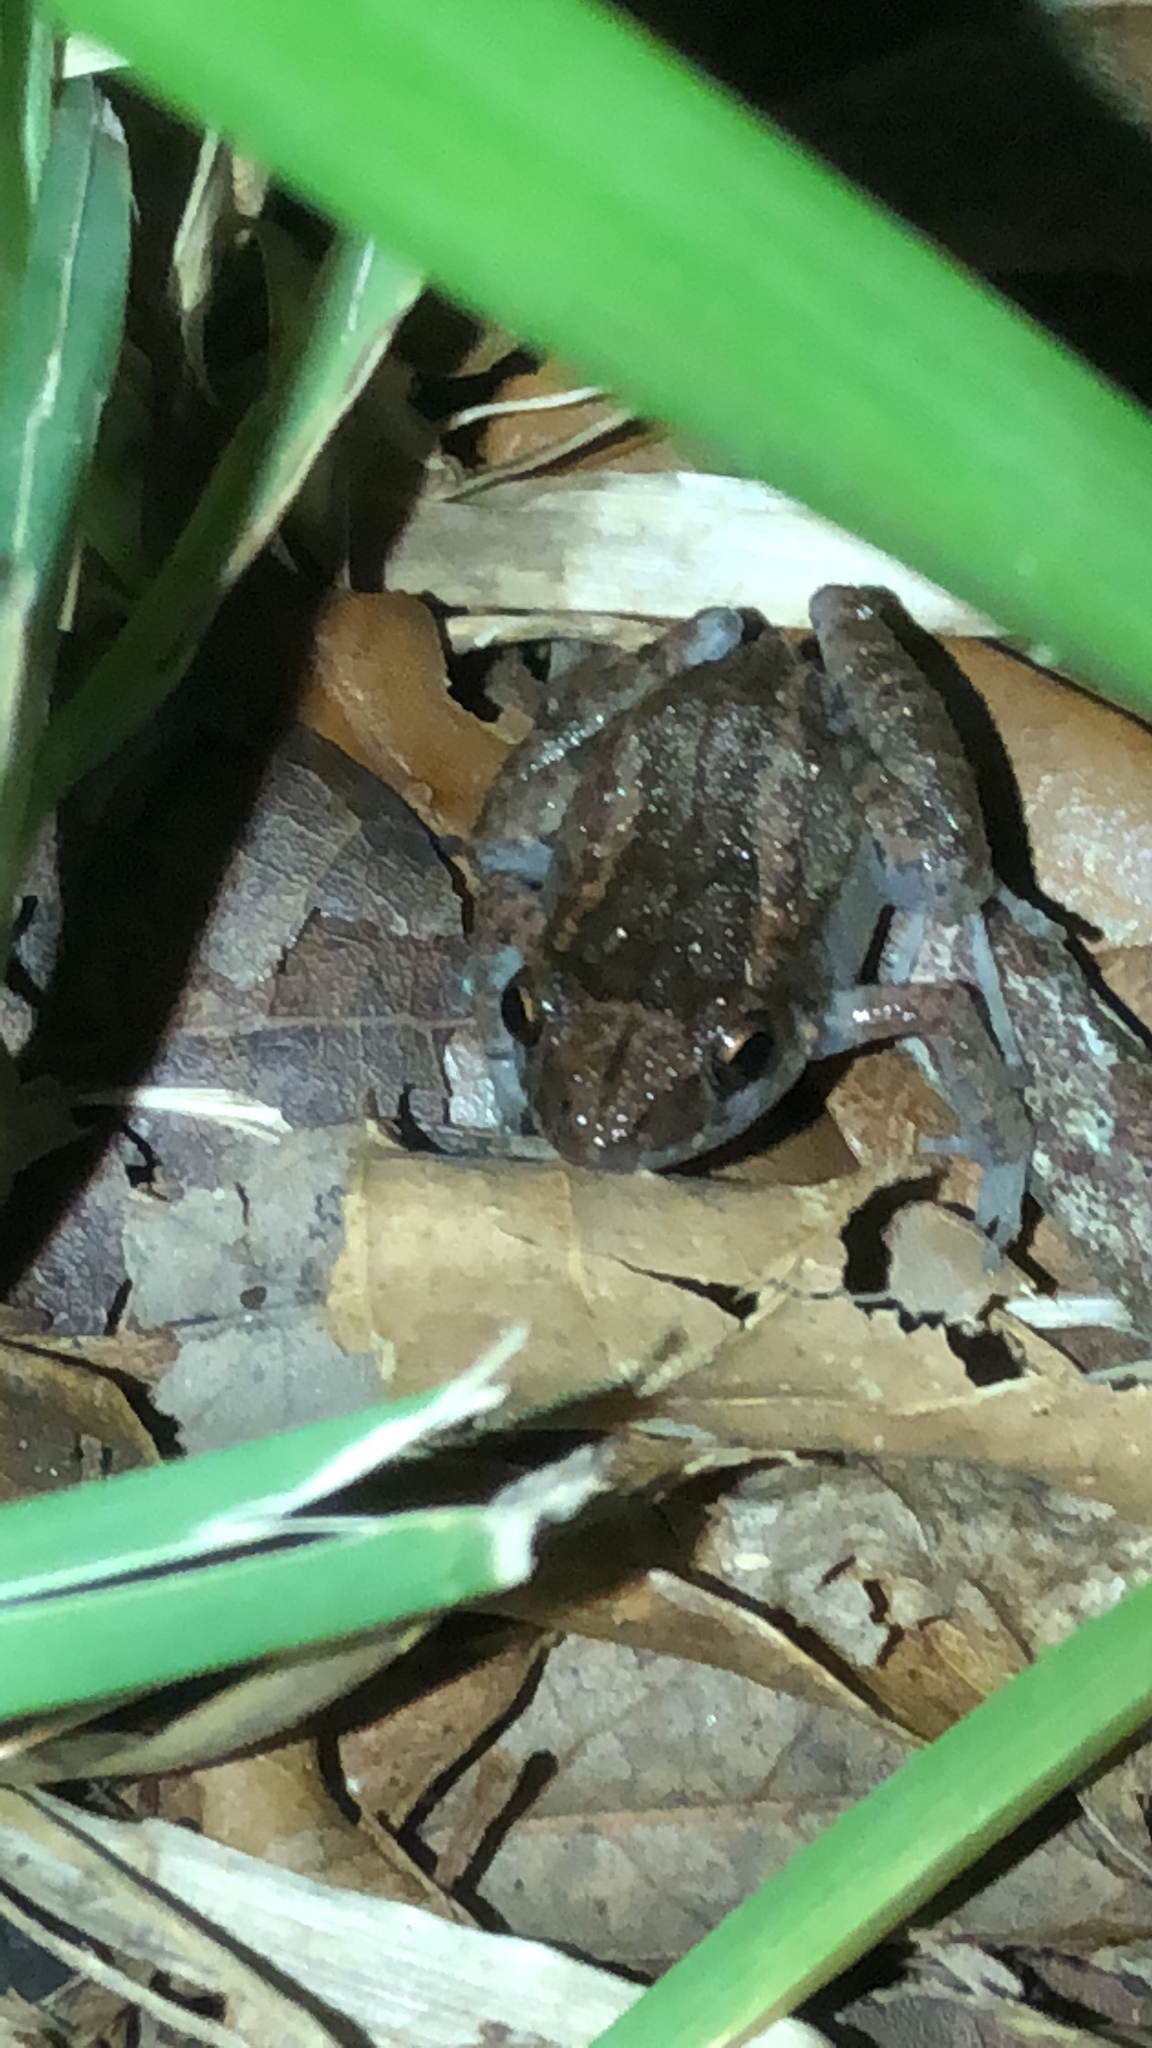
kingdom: Animalia
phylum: Chordata
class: Amphibia
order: Anura
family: Eleutherodactylidae
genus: Eleutherodactylus
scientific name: Eleutherodactylus planirostris
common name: Greenhouse frog
